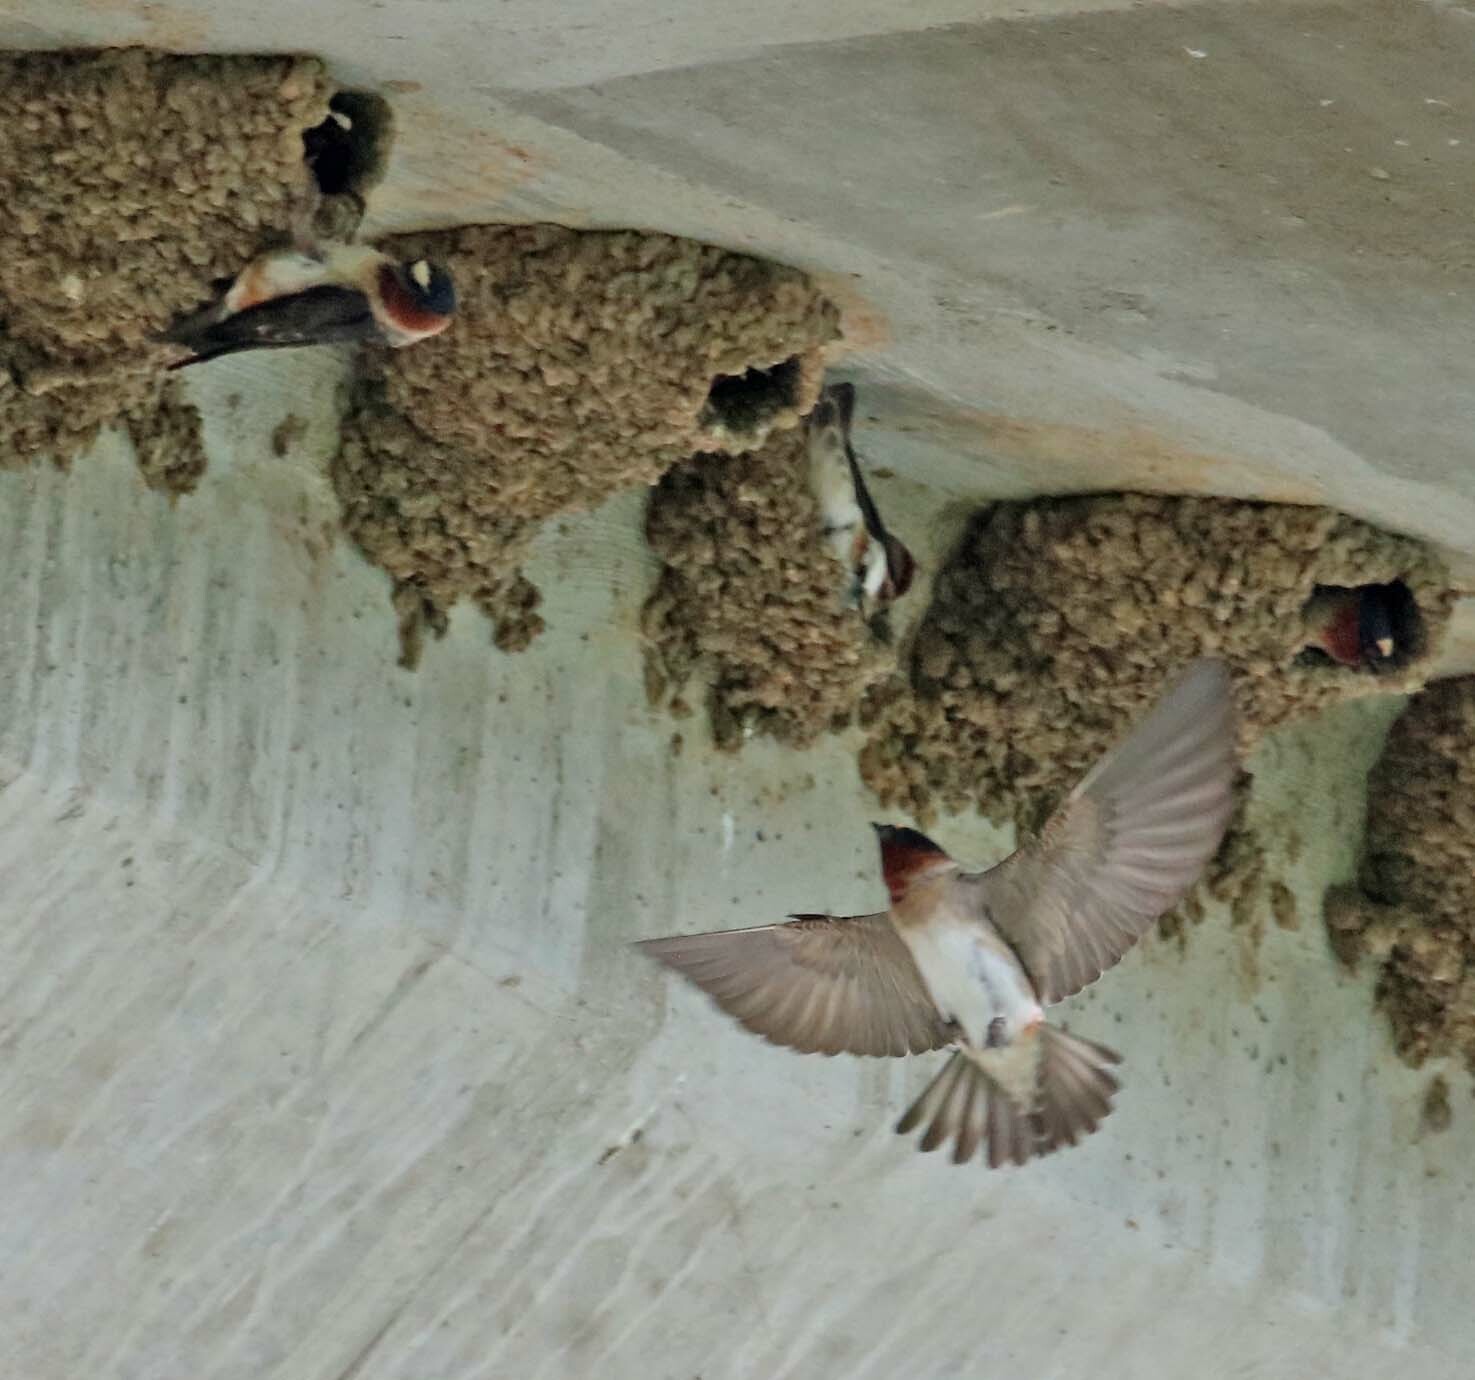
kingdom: Animalia
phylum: Chordata
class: Aves
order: Passeriformes
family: Hirundinidae
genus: Petrochelidon
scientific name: Petrochelidon pyrrhonota
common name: American cliff swallow
